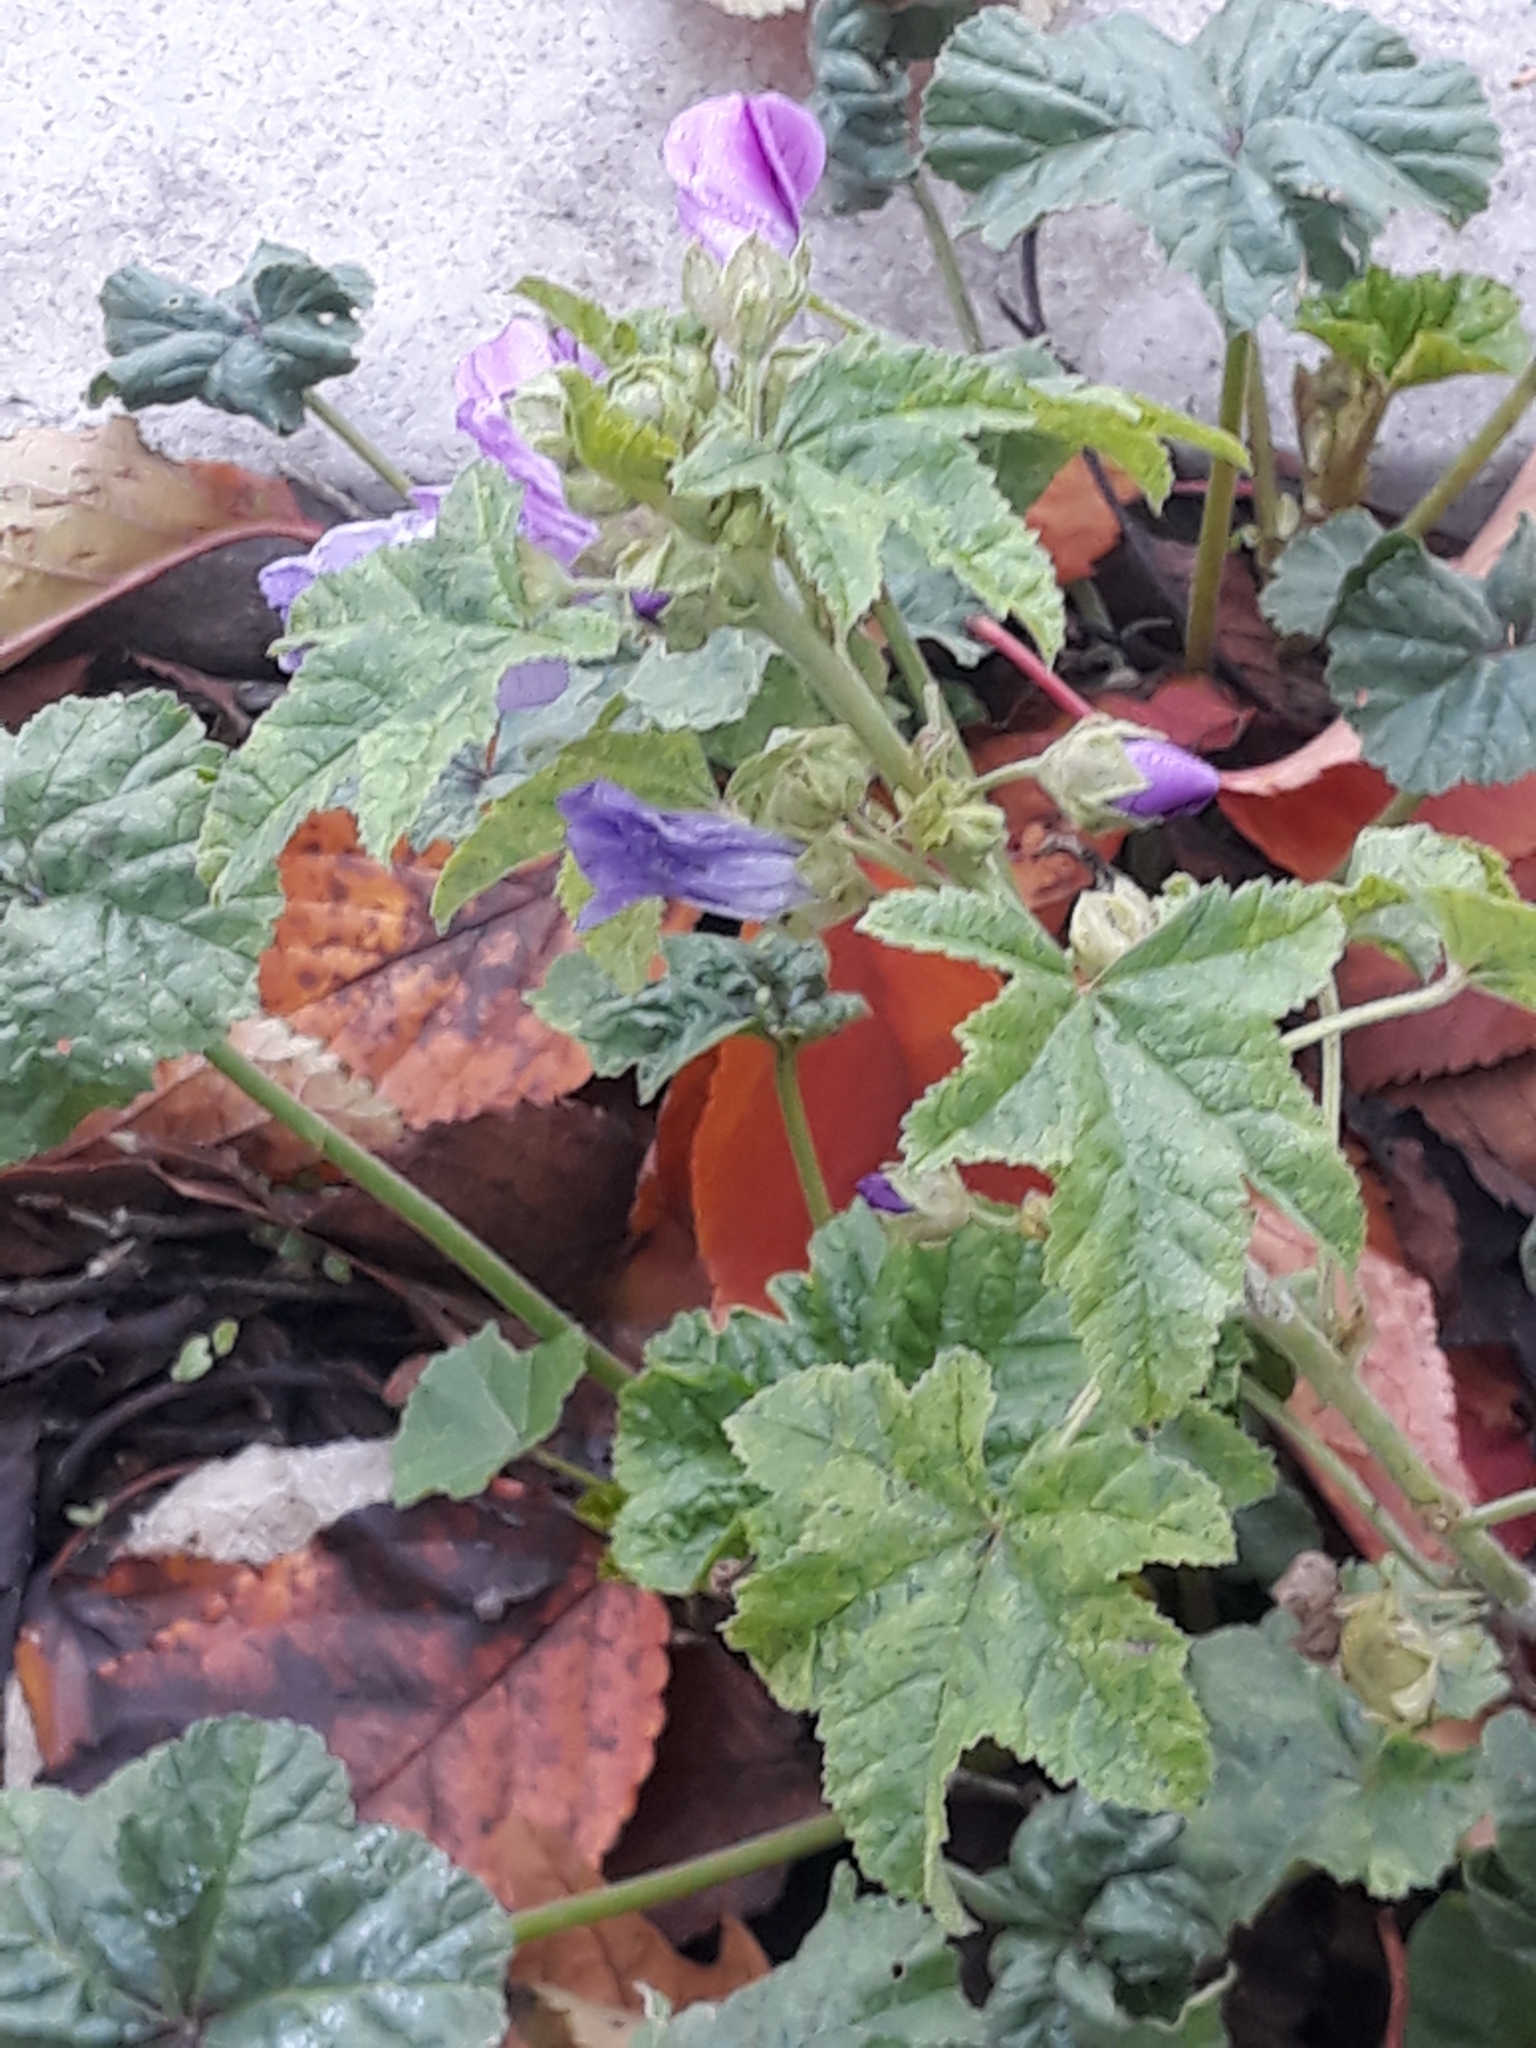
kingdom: Plantae
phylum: Tracheophyta
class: Magnoliopsida
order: Malvales
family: Malvaceae
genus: Malva
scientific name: Malva sylvestris
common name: Common mallow
